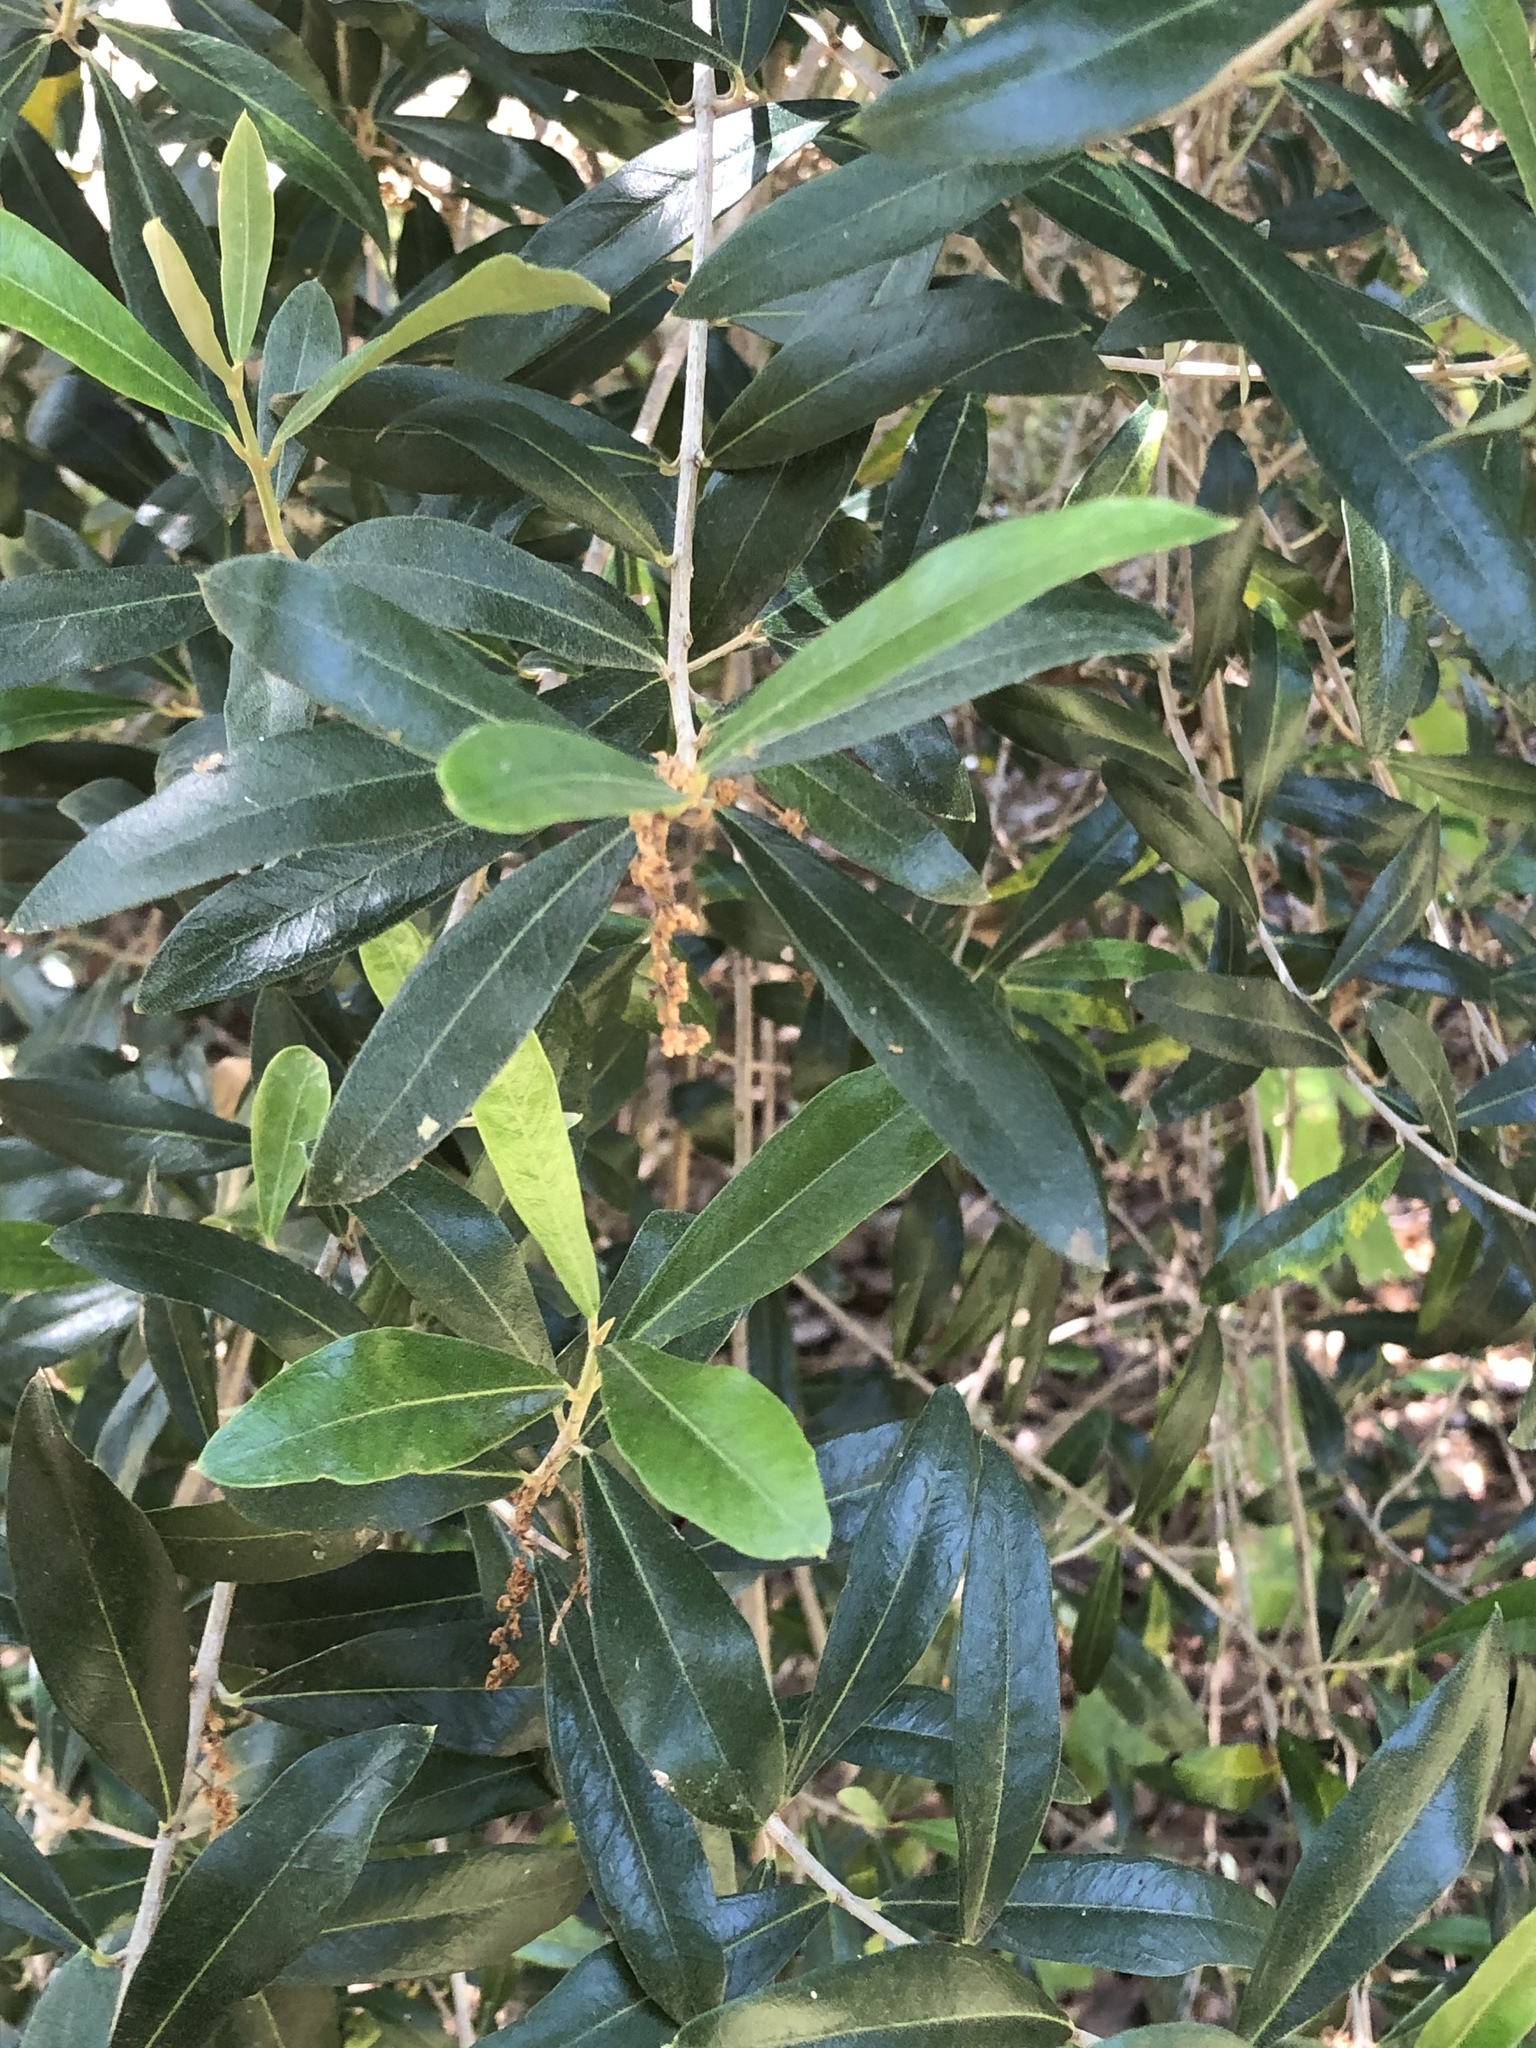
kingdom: Plantae
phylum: Tracheophyta
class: Magnoliopsida
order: Lamiales
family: Oleaceae
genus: Olea
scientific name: Olea europaea
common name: Olive
